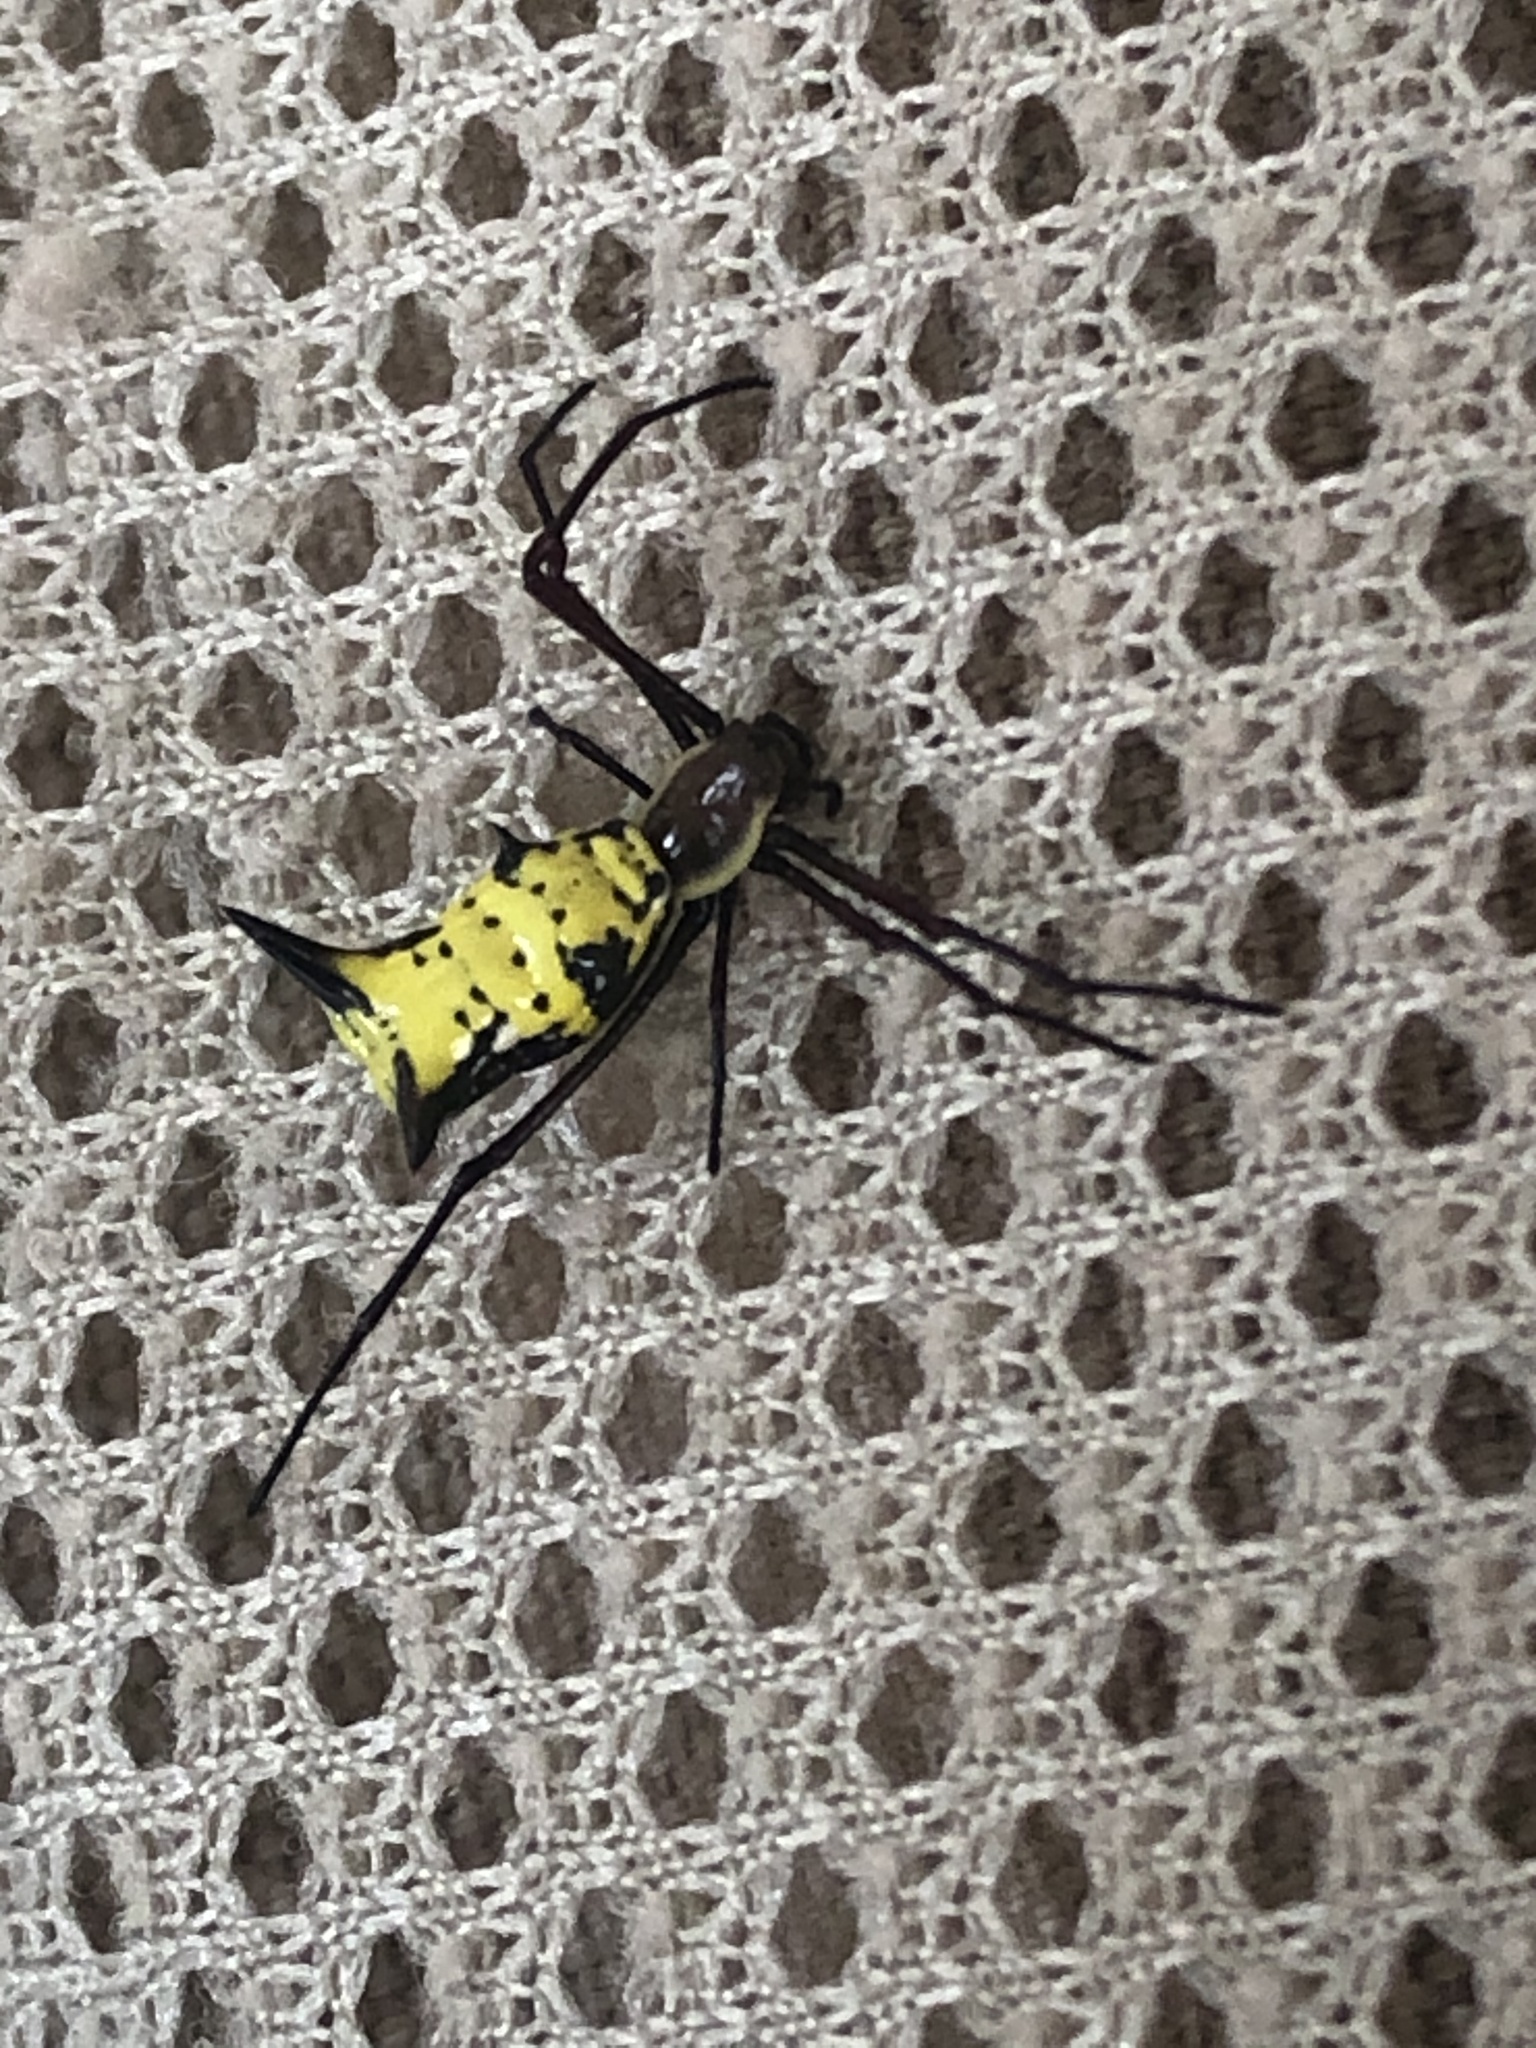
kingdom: Animalia
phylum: Arthropoda
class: Arachnida
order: Araneae
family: Araneidae
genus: Micrathena
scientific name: Micrathena miles
